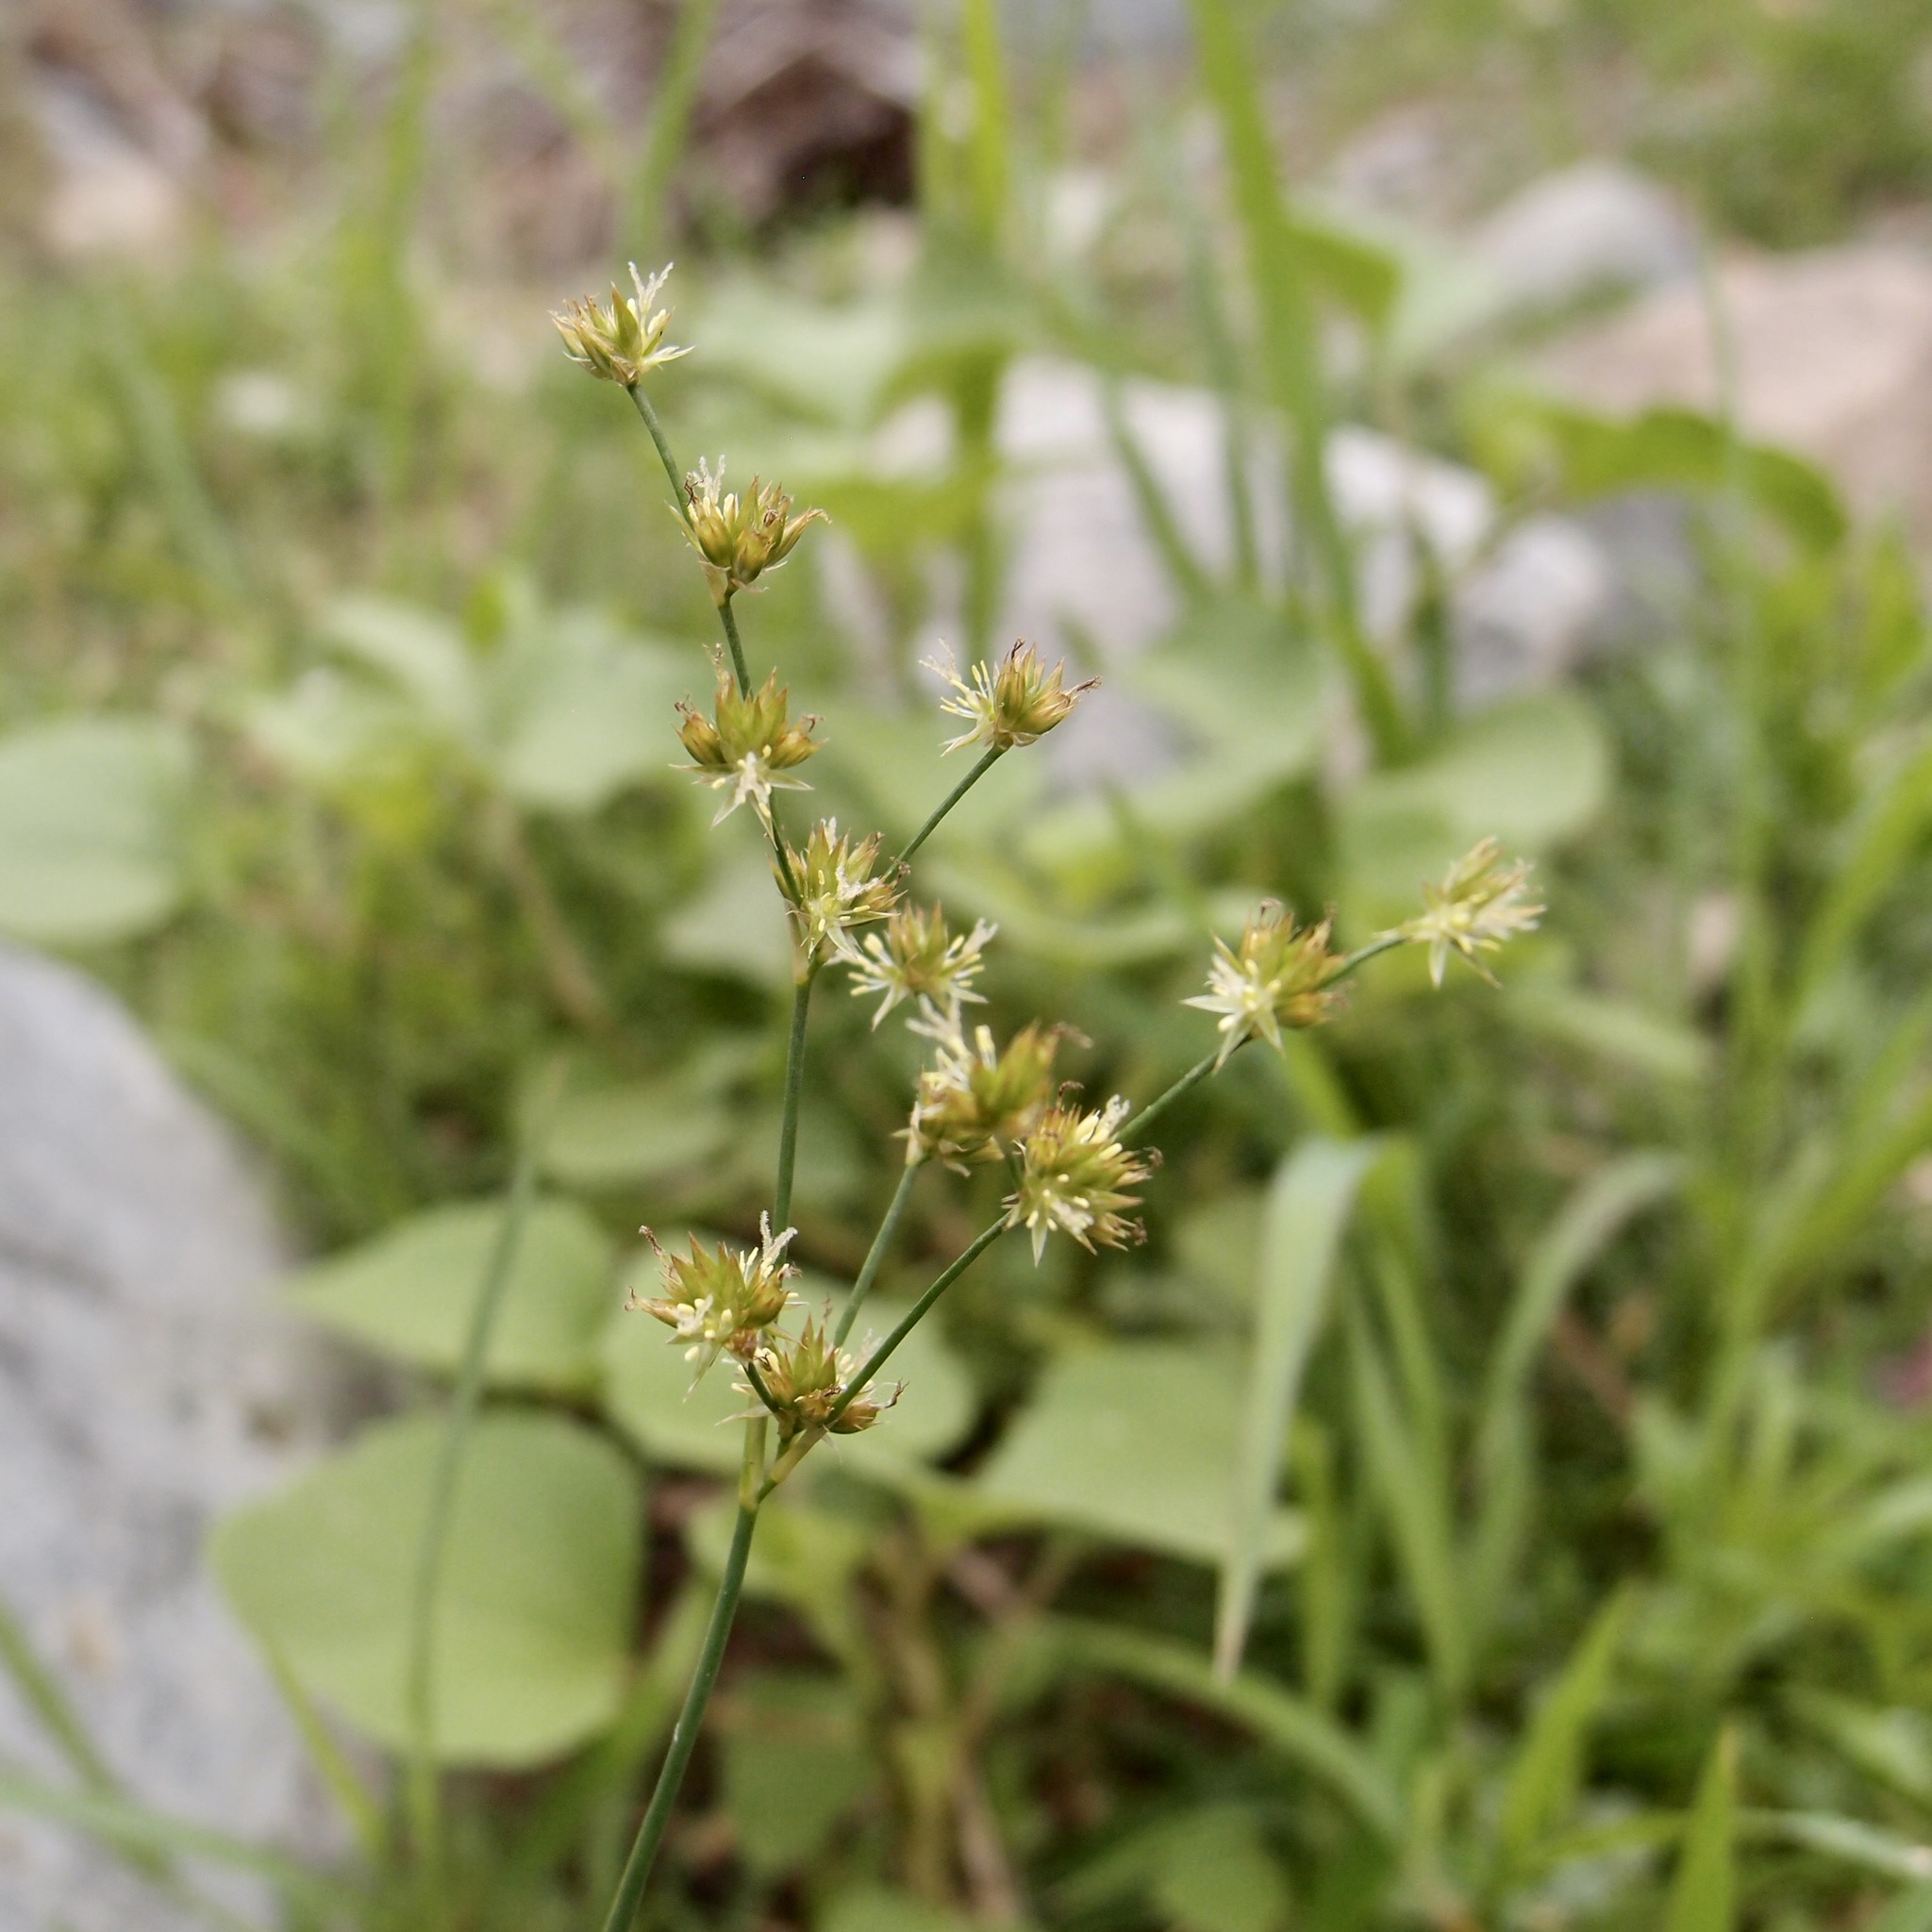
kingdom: Plantae
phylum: Tracheophyta
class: Liliopsida
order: Poales
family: Juncaceae
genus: Juncus
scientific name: Juncus saximontanus
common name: Rocky mountain rush
